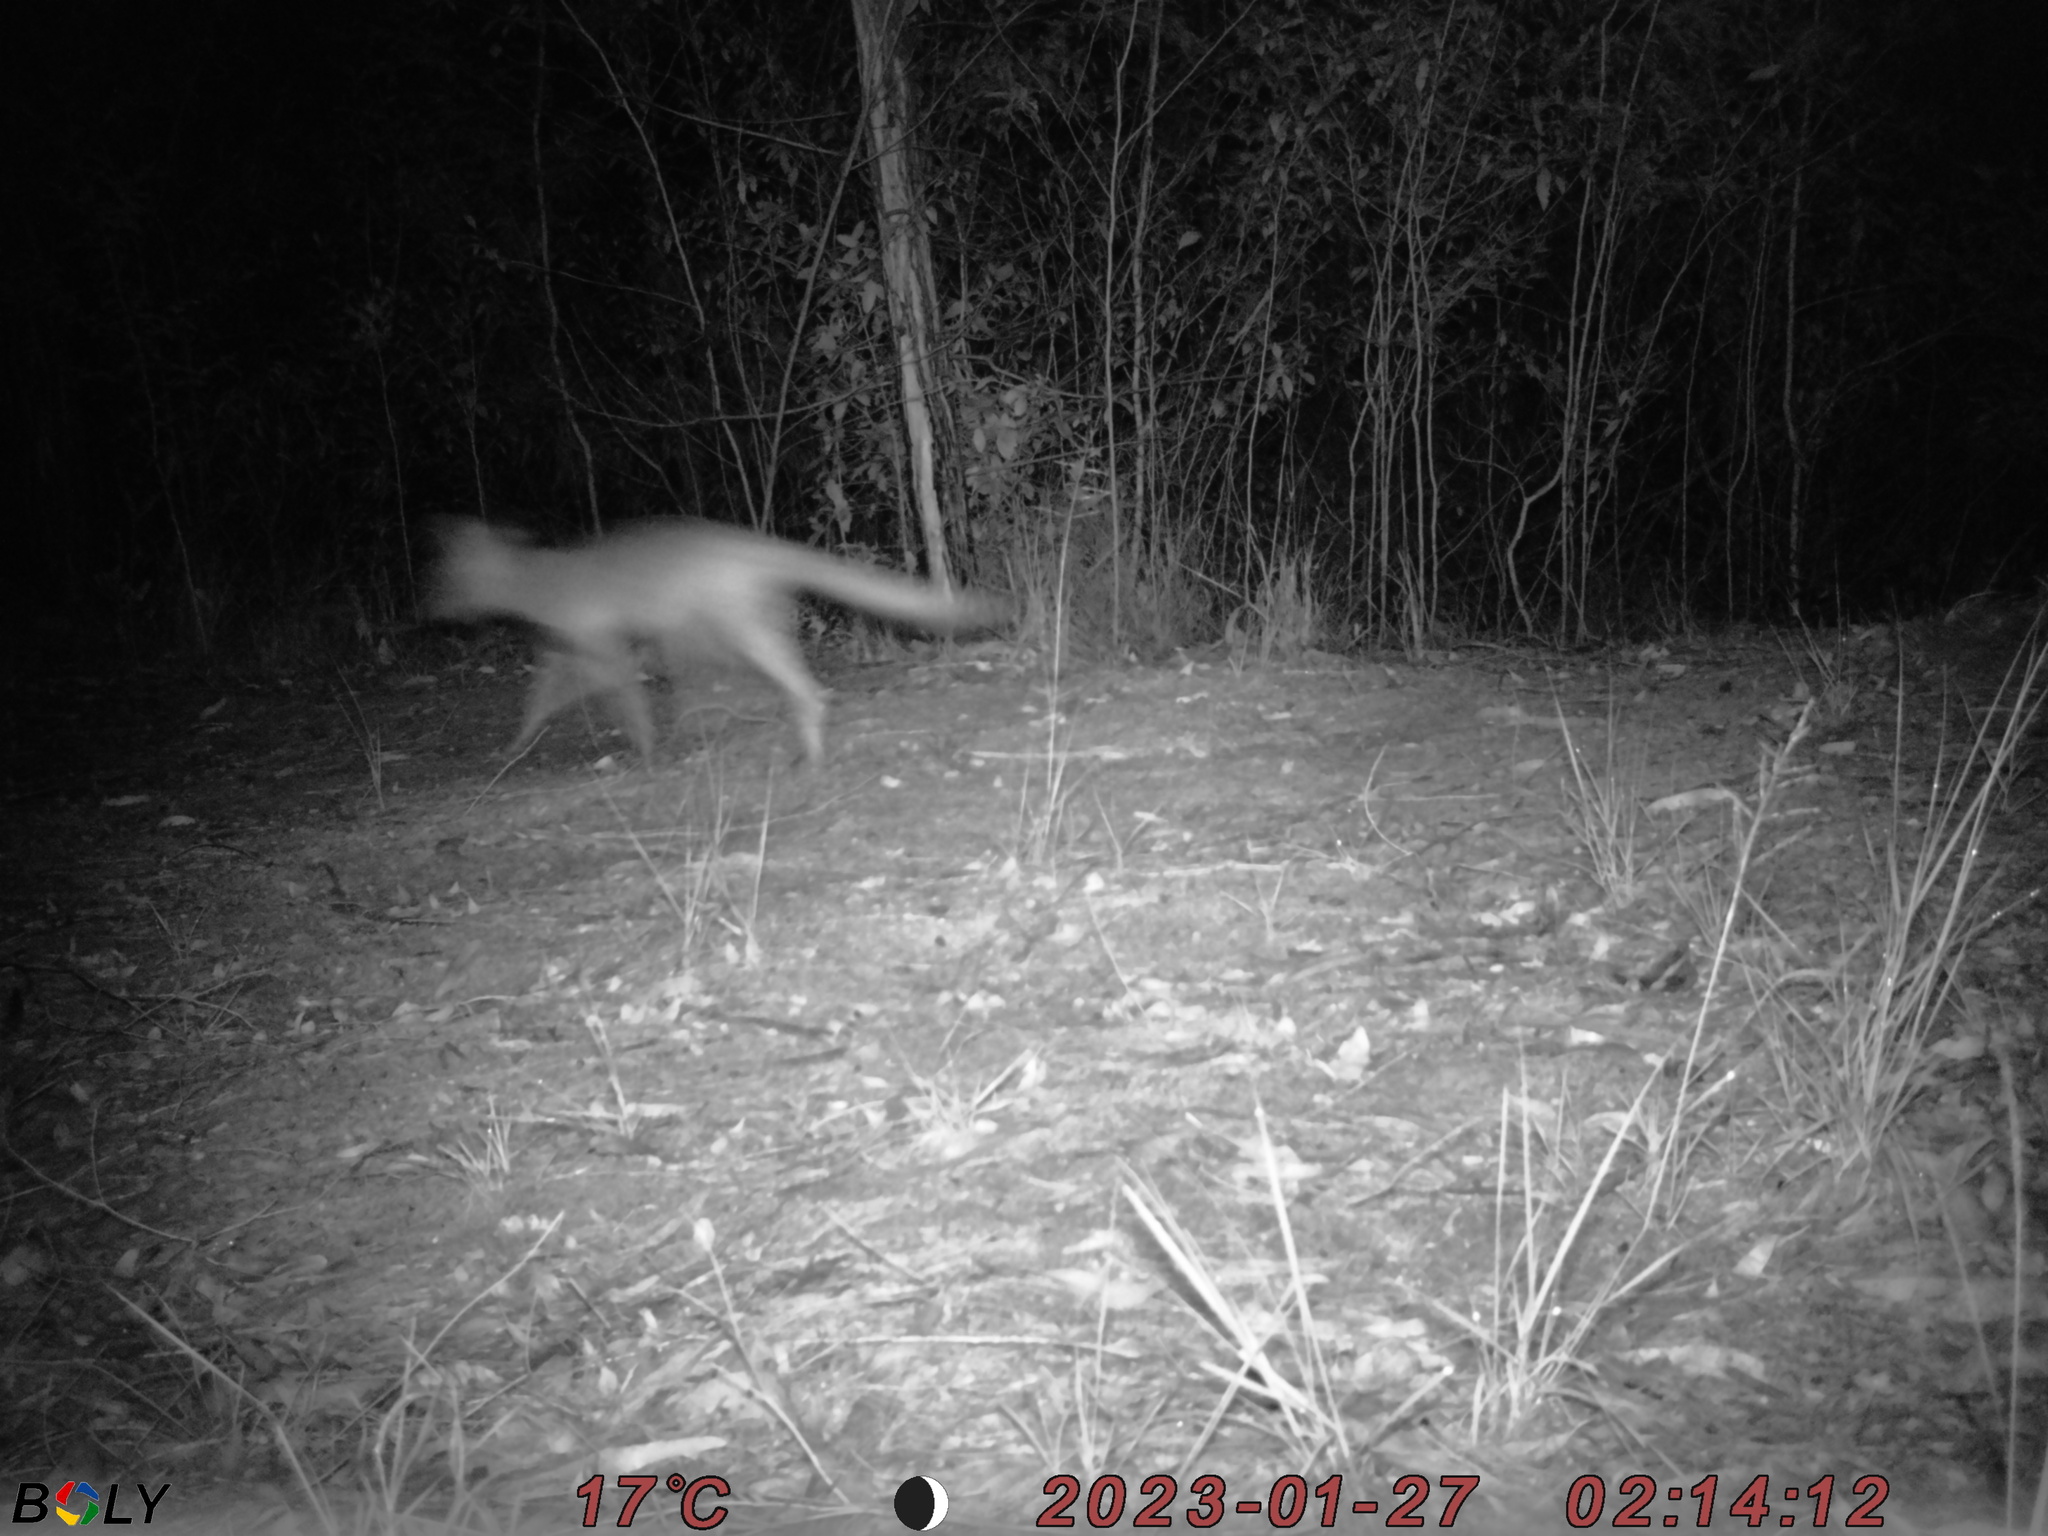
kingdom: Animalia
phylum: Chordata
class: Mammalia
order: Carnivora
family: Canidae
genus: Vulpes
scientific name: Vulpes vulpes
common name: Red fox
